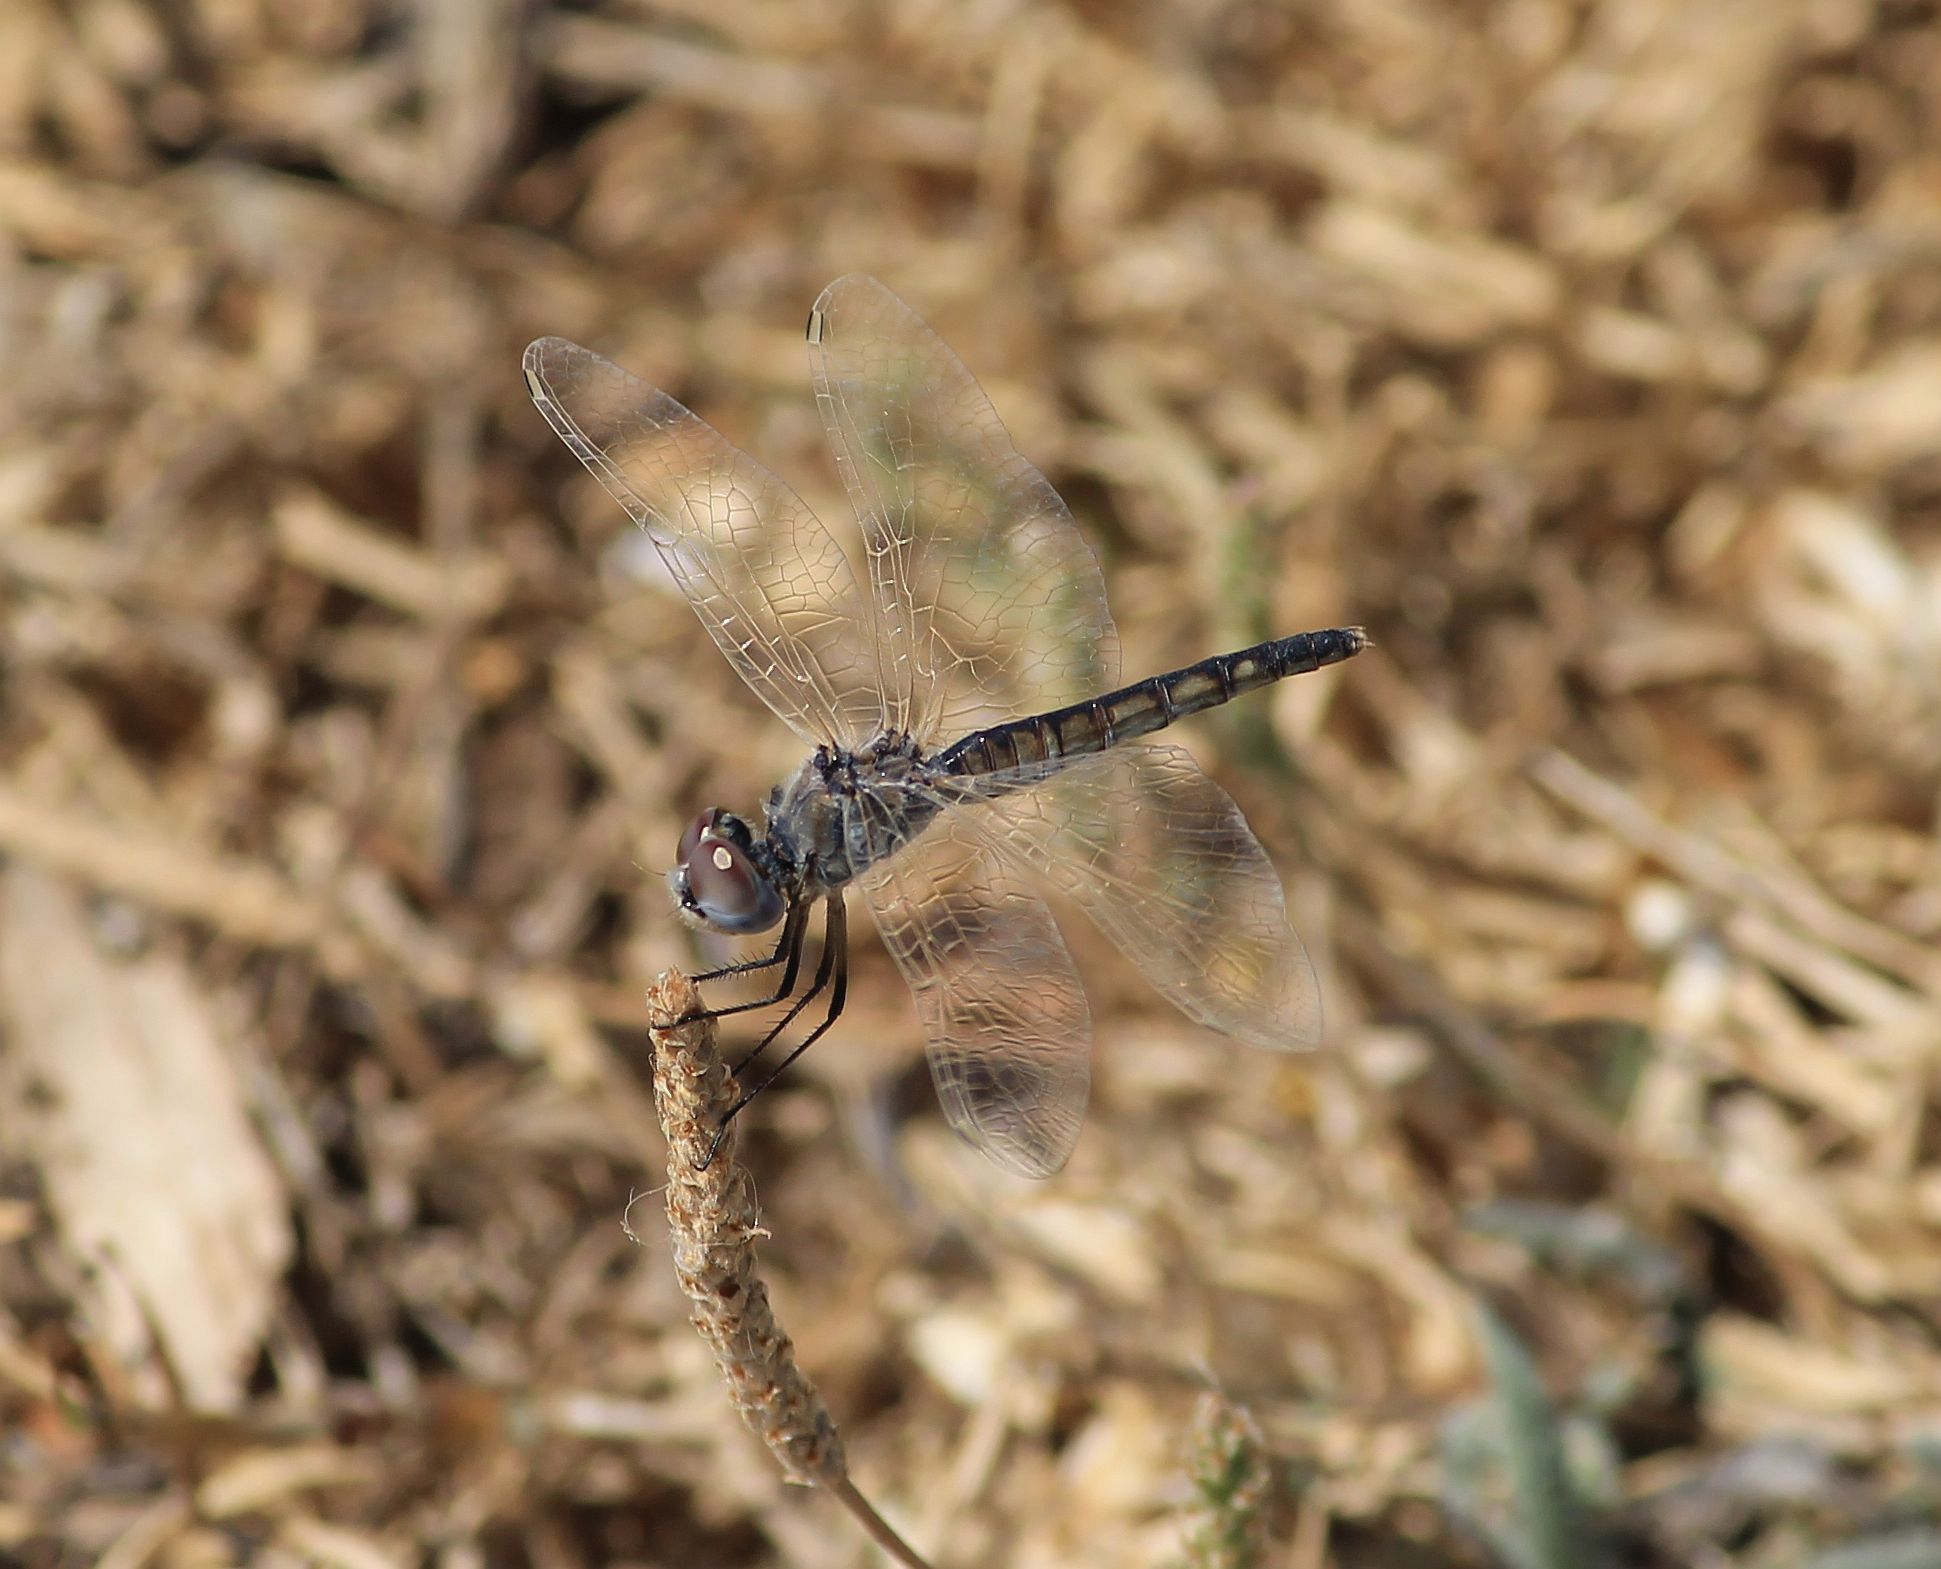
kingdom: Animalia
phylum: Arthropoda
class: Insecta
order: Odonata
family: Libellulidae
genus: Selysiothemis
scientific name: Selysiothemis nigra
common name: Black pennant
